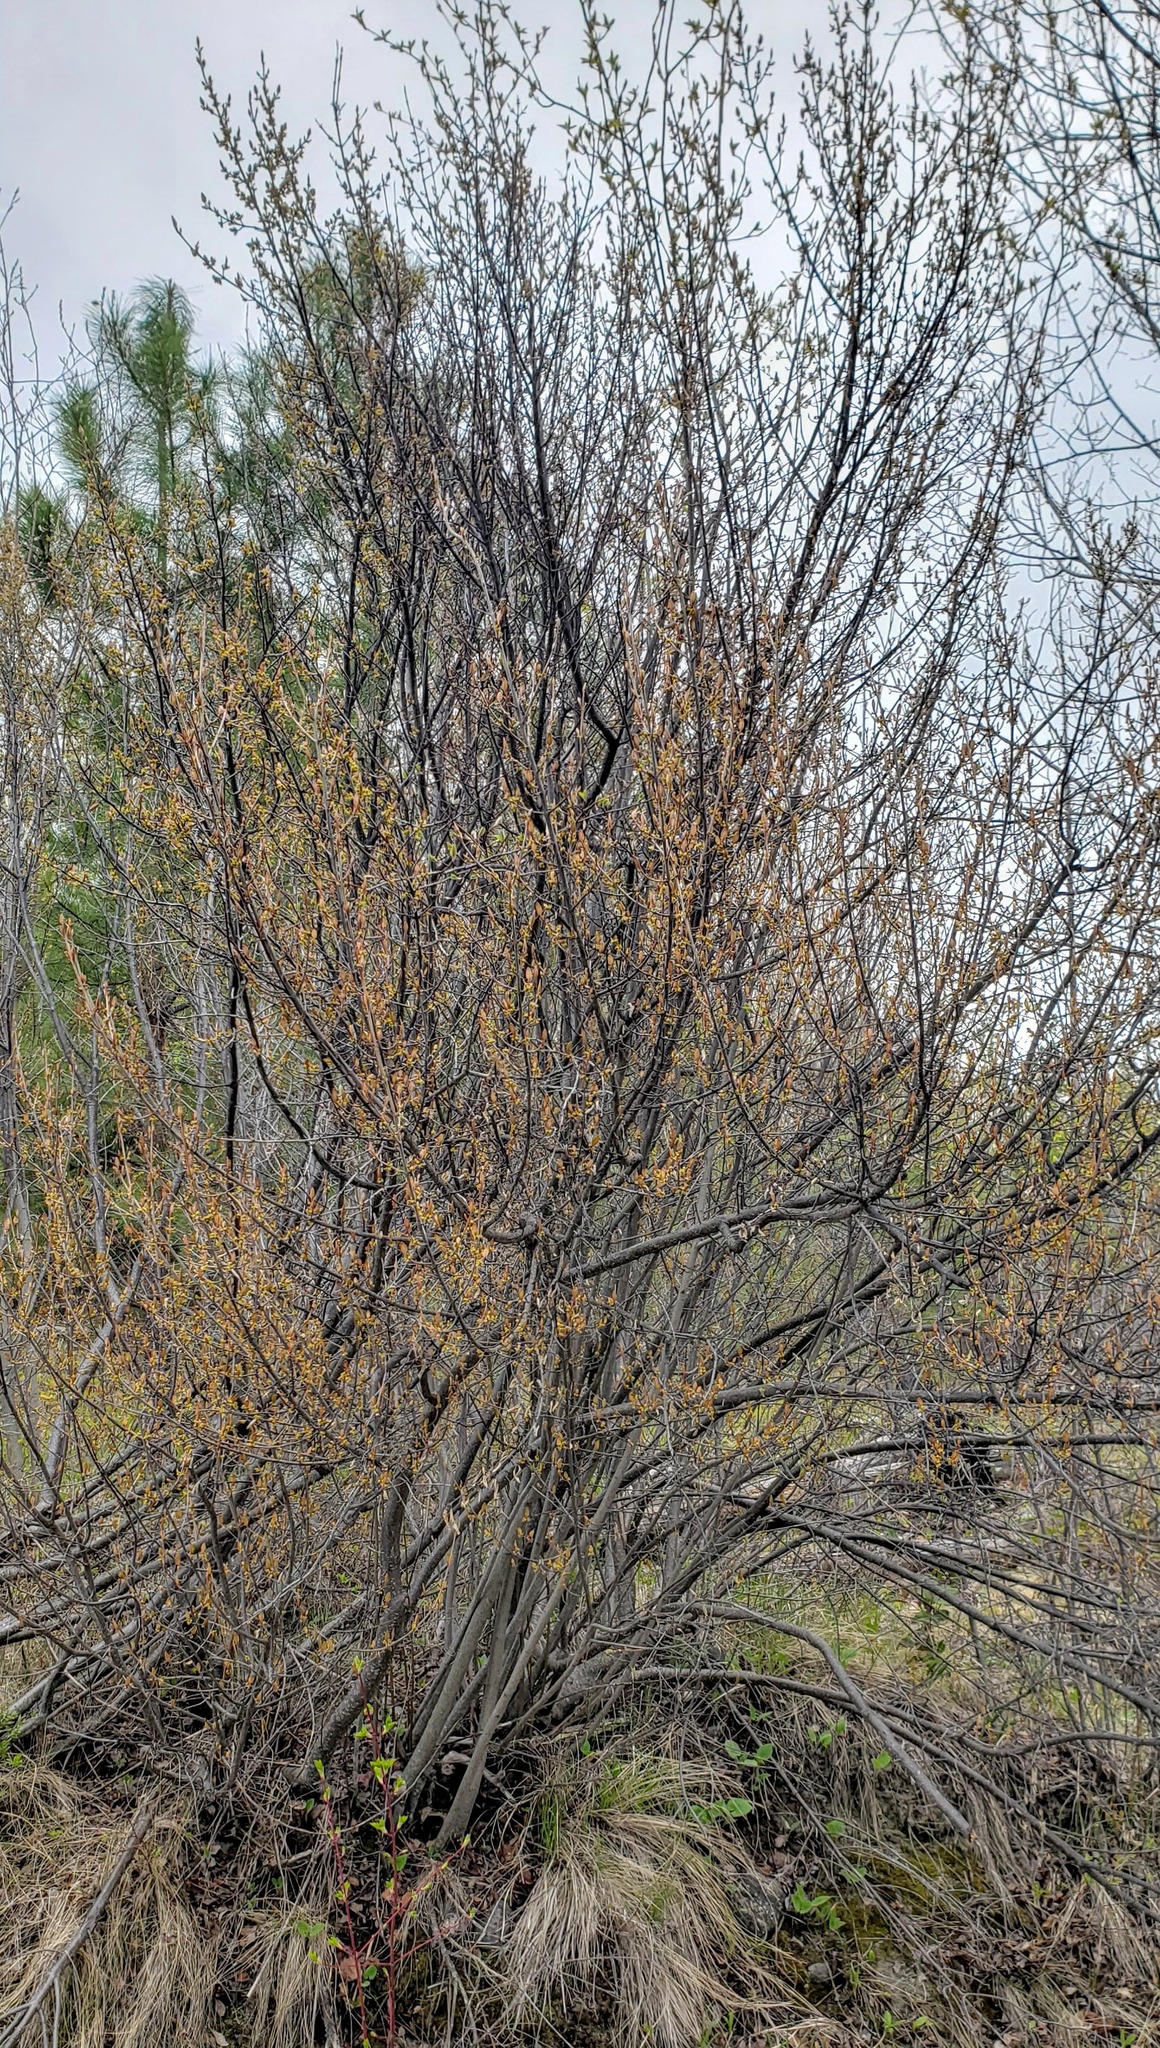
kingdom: Plantae
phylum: Tracheophyta
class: Magnoliopsida
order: Rosales
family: Elaeagnaceae
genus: Shepherdia
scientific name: Shepherdia canadensis
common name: Soapberry
